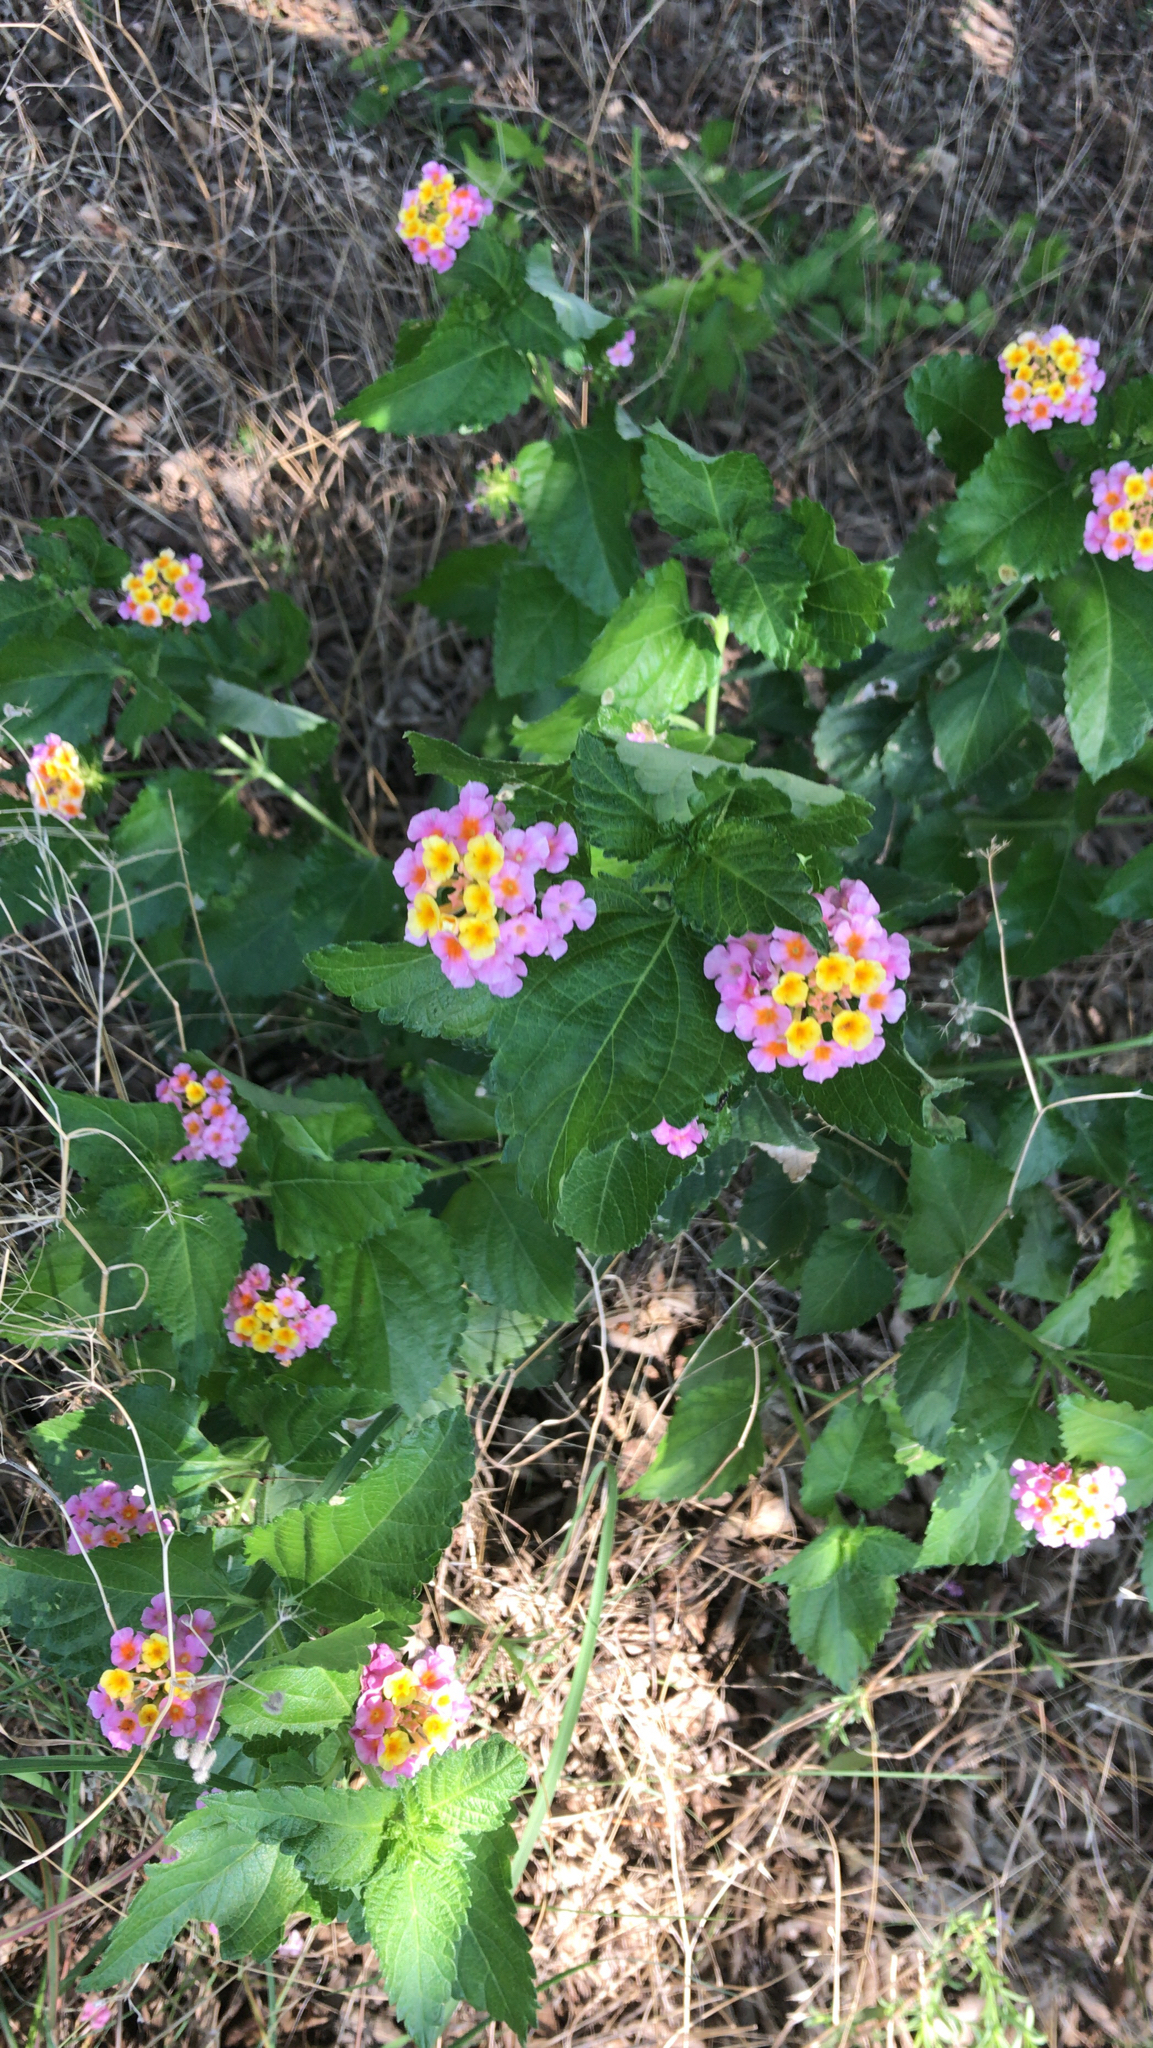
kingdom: Plantae
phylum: Tracheophyta
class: Magnoliopsida
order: Lamiales
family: Verbenaceae
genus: Lantana
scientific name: Lantana strigocamara
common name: Lantana
